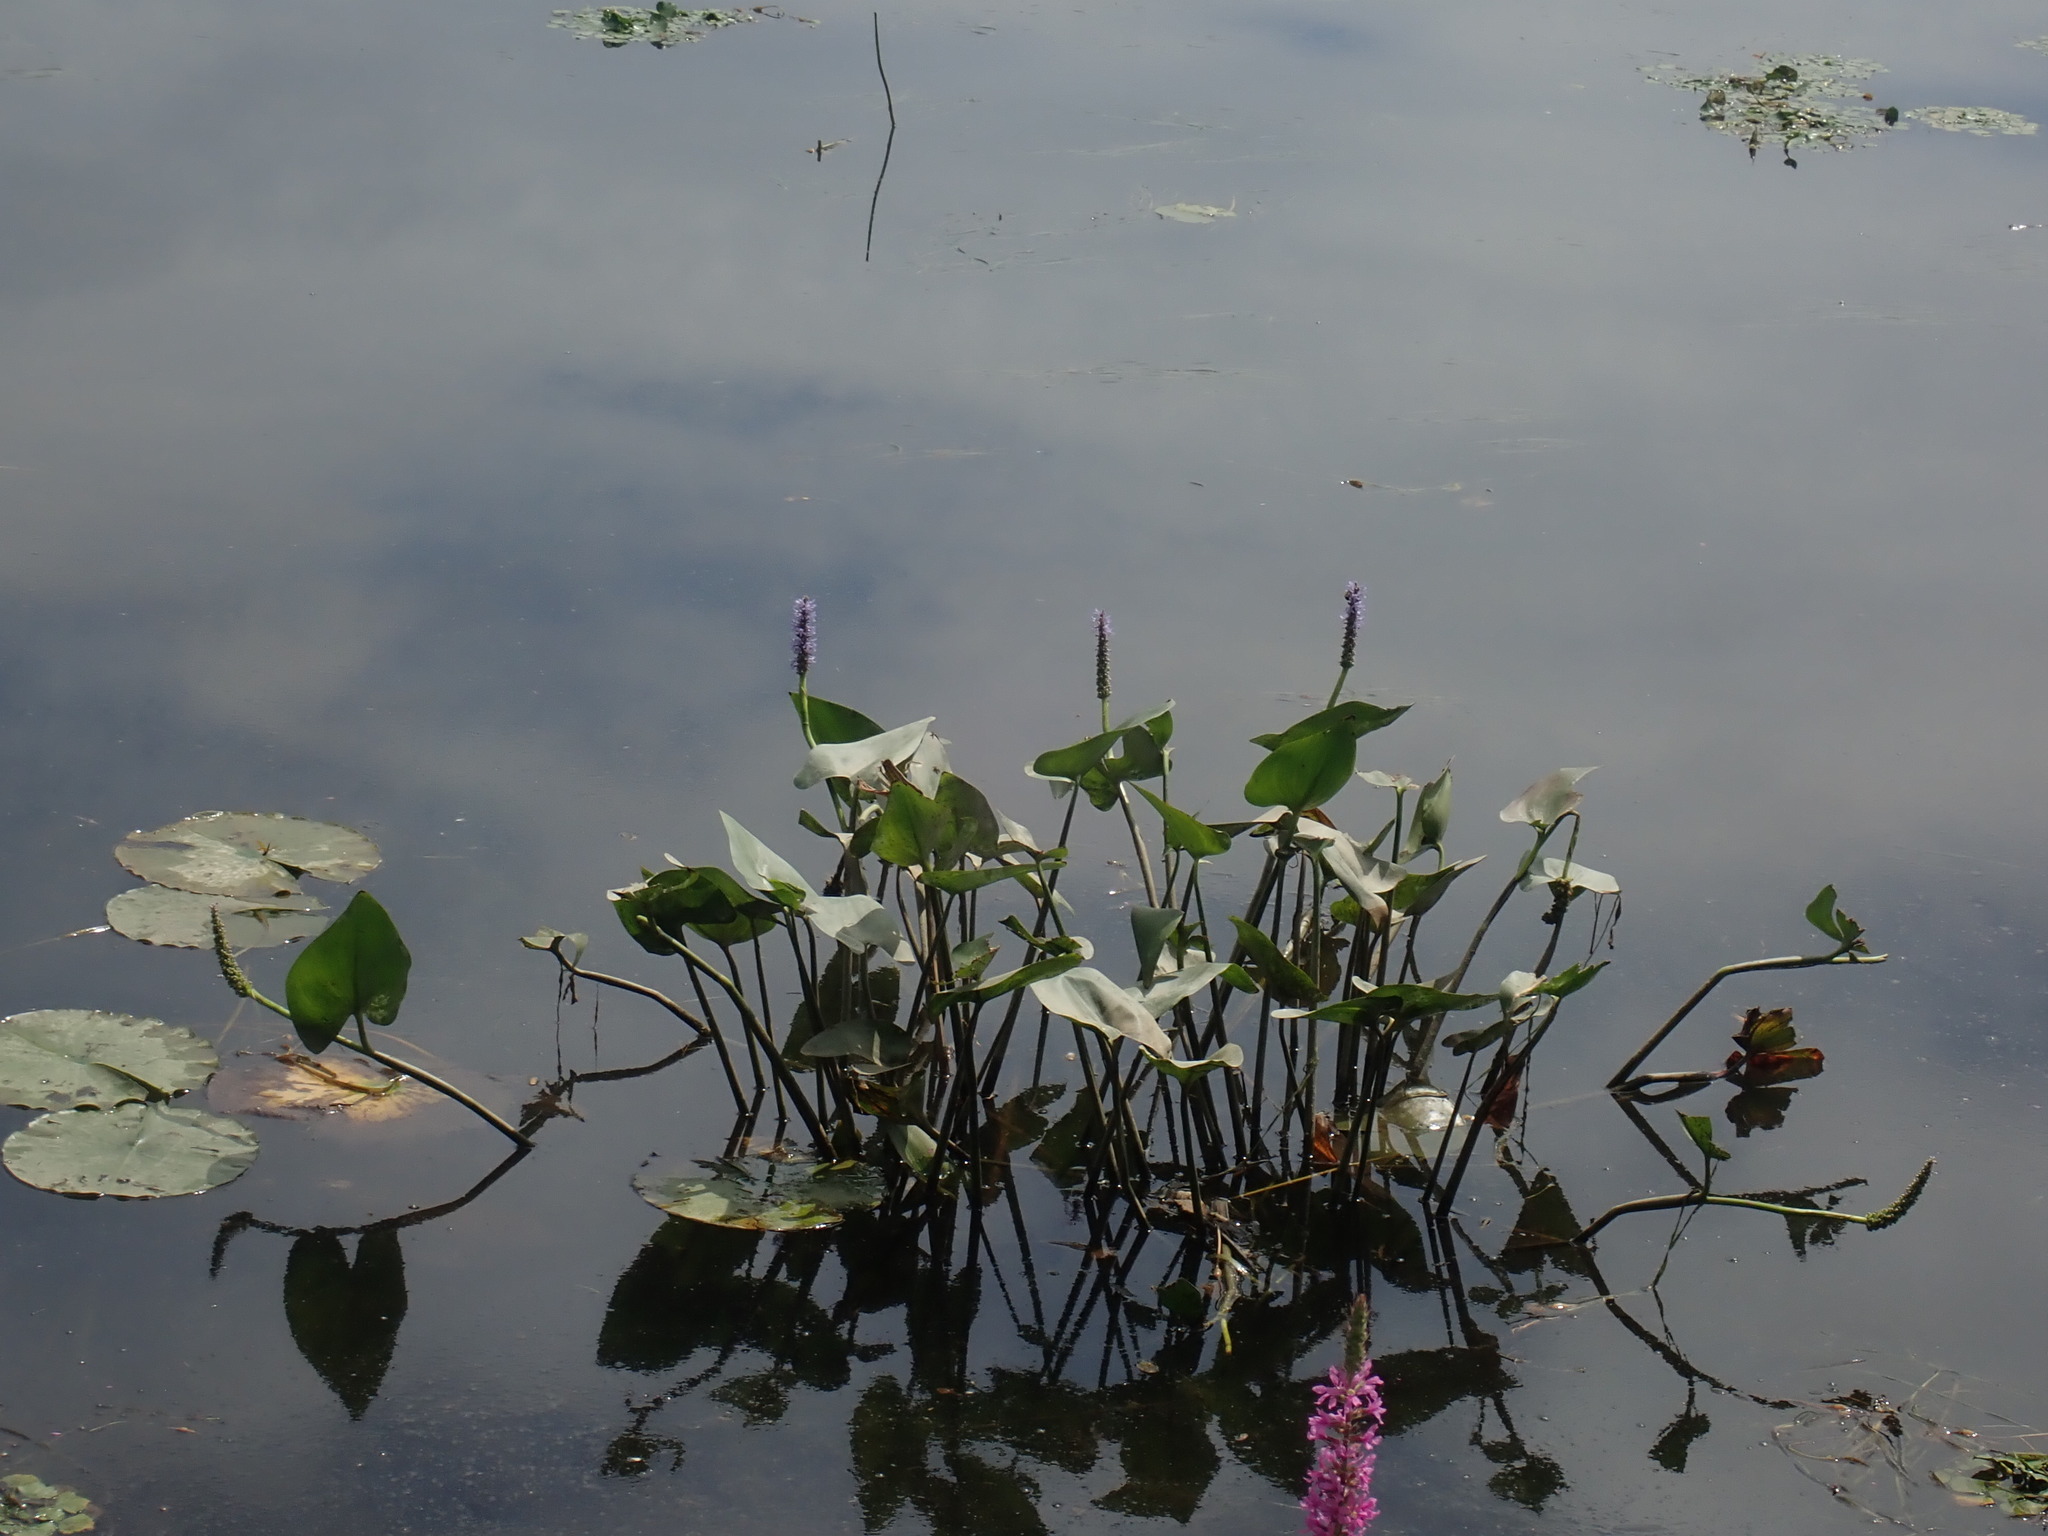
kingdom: Plantae
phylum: Tracheophyta
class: Liliopsida
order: Commelinales
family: Pontederiaceae
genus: Pontederia
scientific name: Pontederia cordata
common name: Pickerelweed
